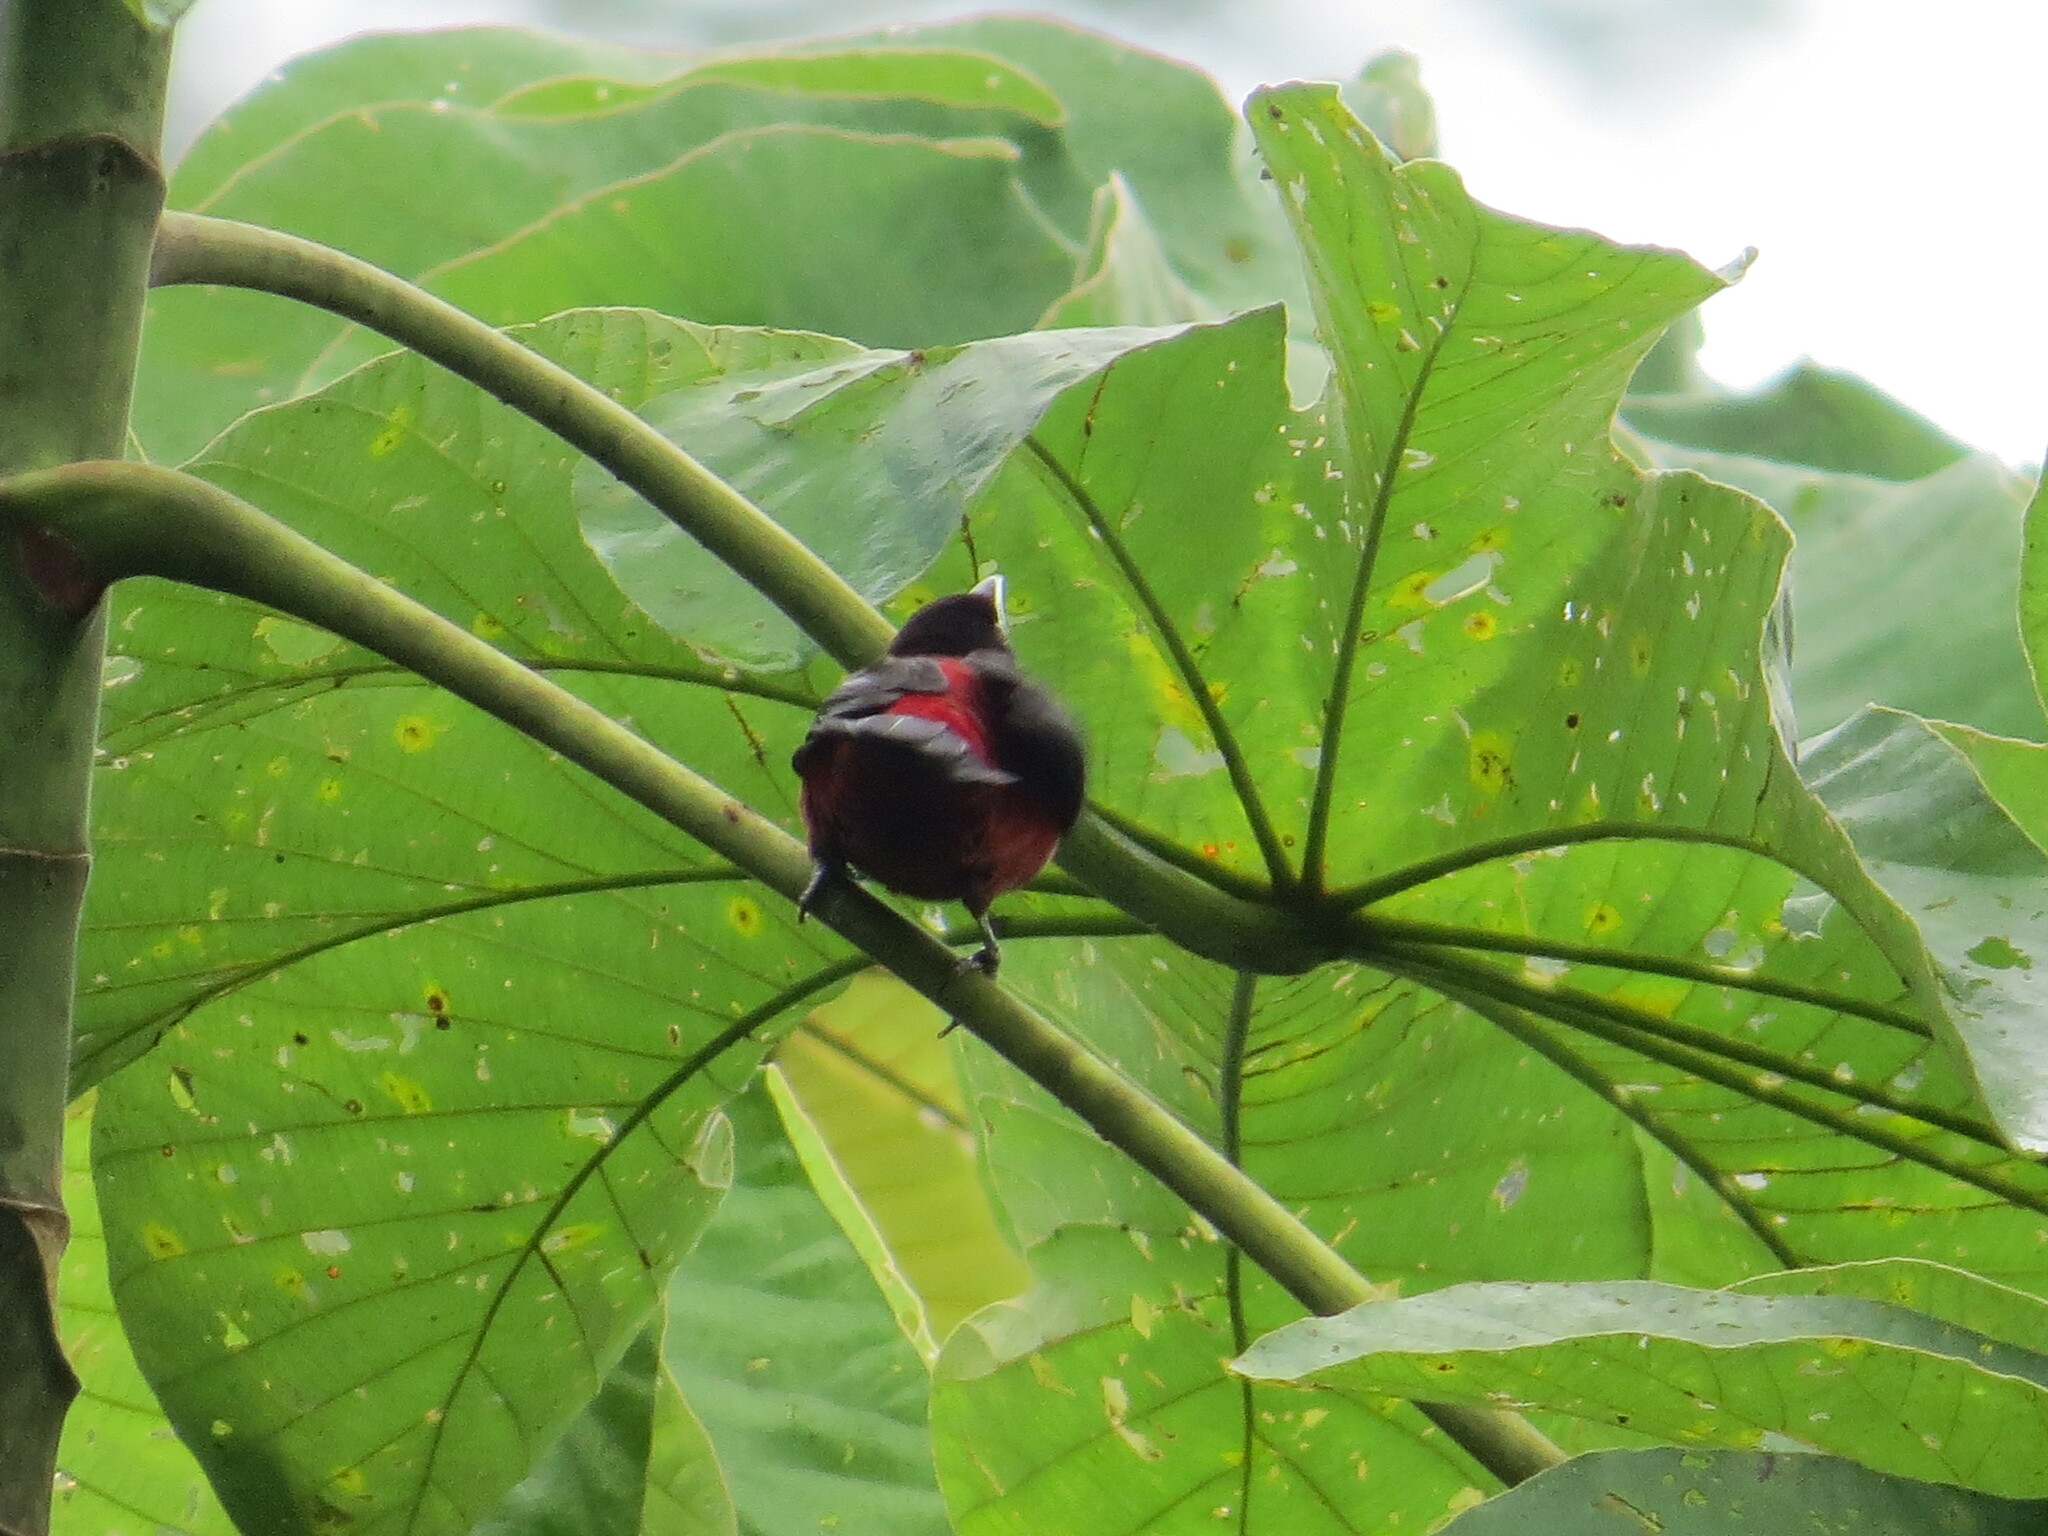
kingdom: Animalia
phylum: Chordata
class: Aves
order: Passeriformes
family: Thraupidae
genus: Ramphocelus
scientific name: Ramphocelus dimidiatus
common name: Crimson-backed tanager
